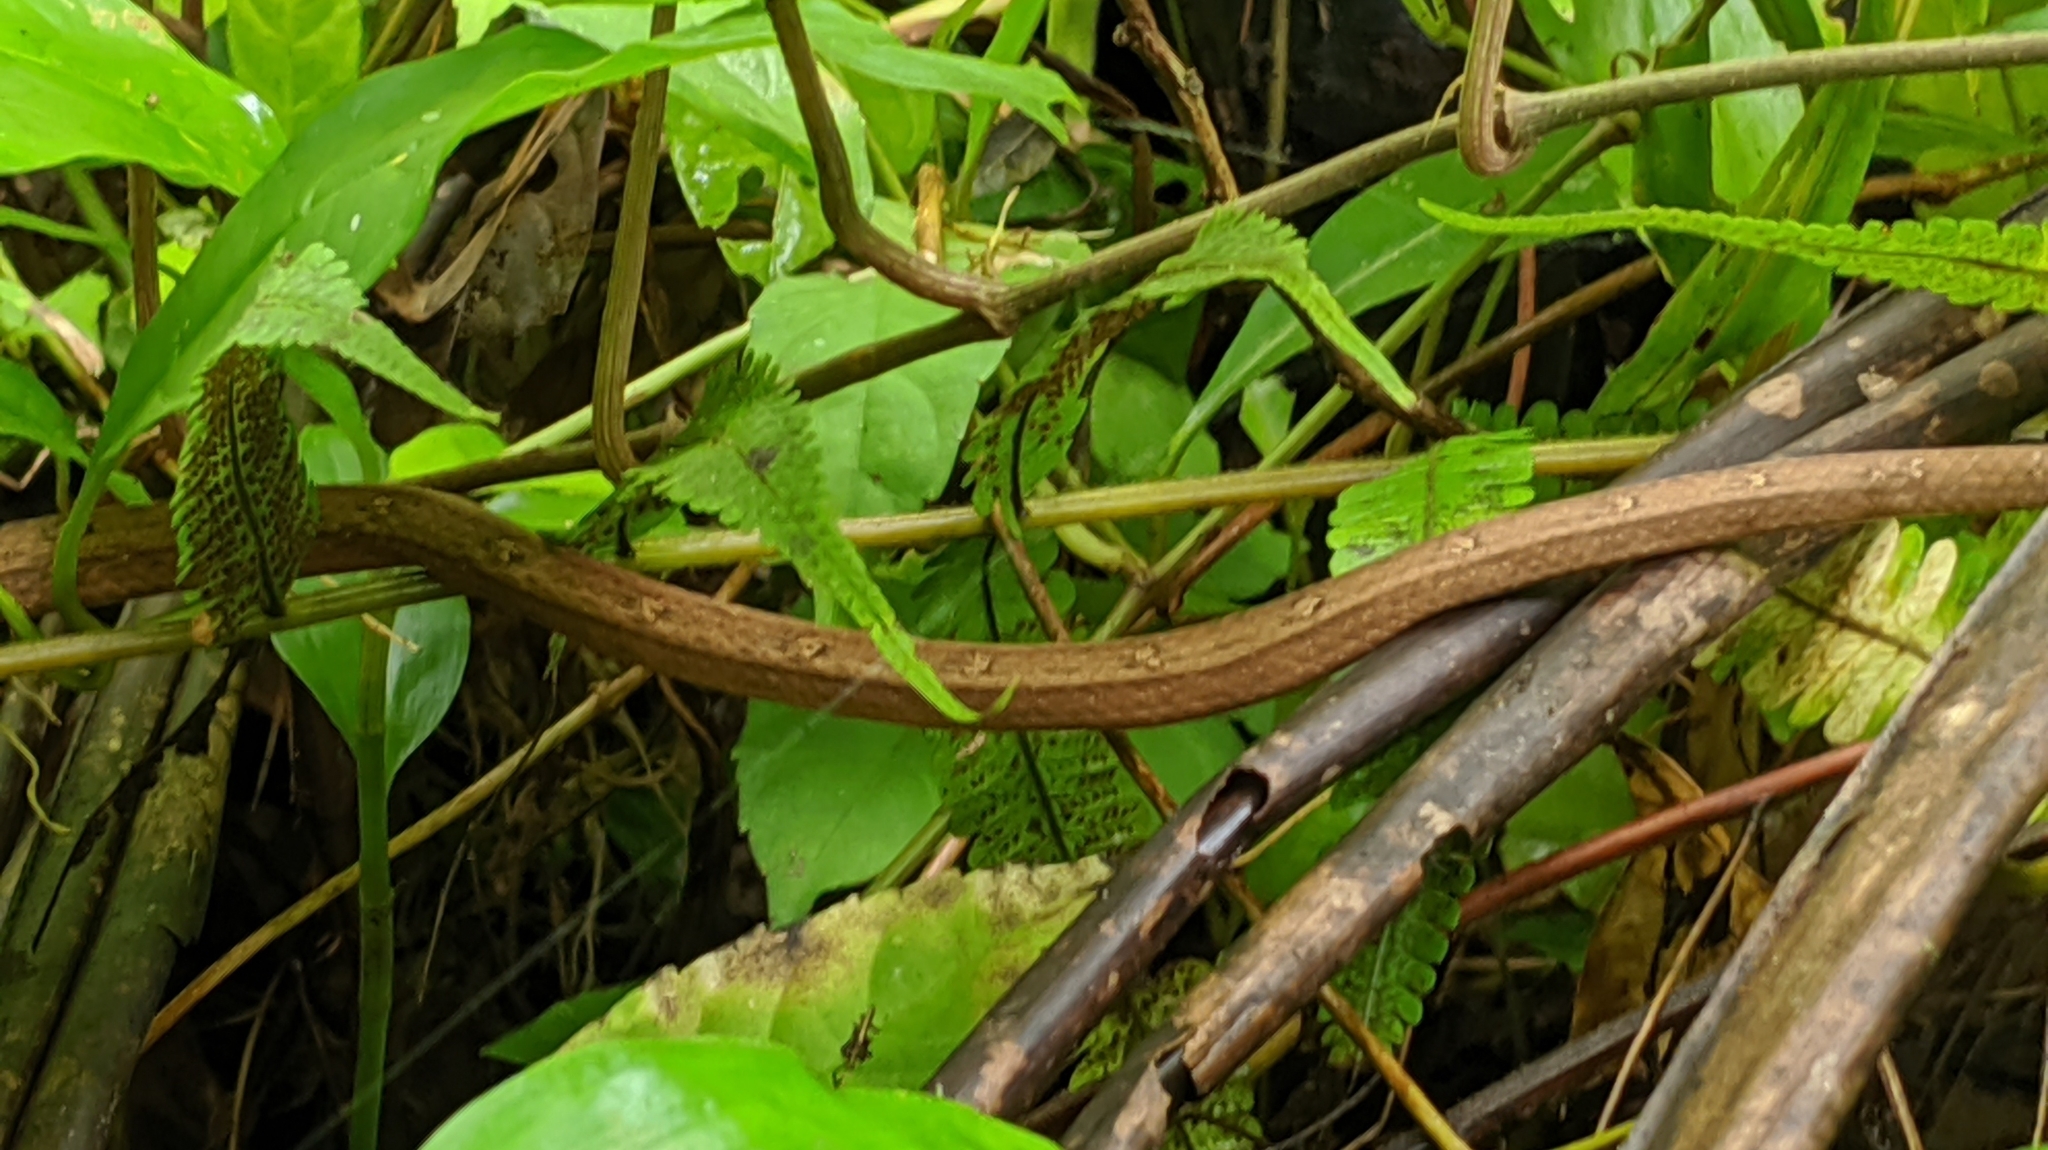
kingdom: Animalia
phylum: Chordata
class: Squamata
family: Pseudaspididae
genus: Psammodynastes
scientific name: Psammodynastes pulverulentus
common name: Common mock viper
